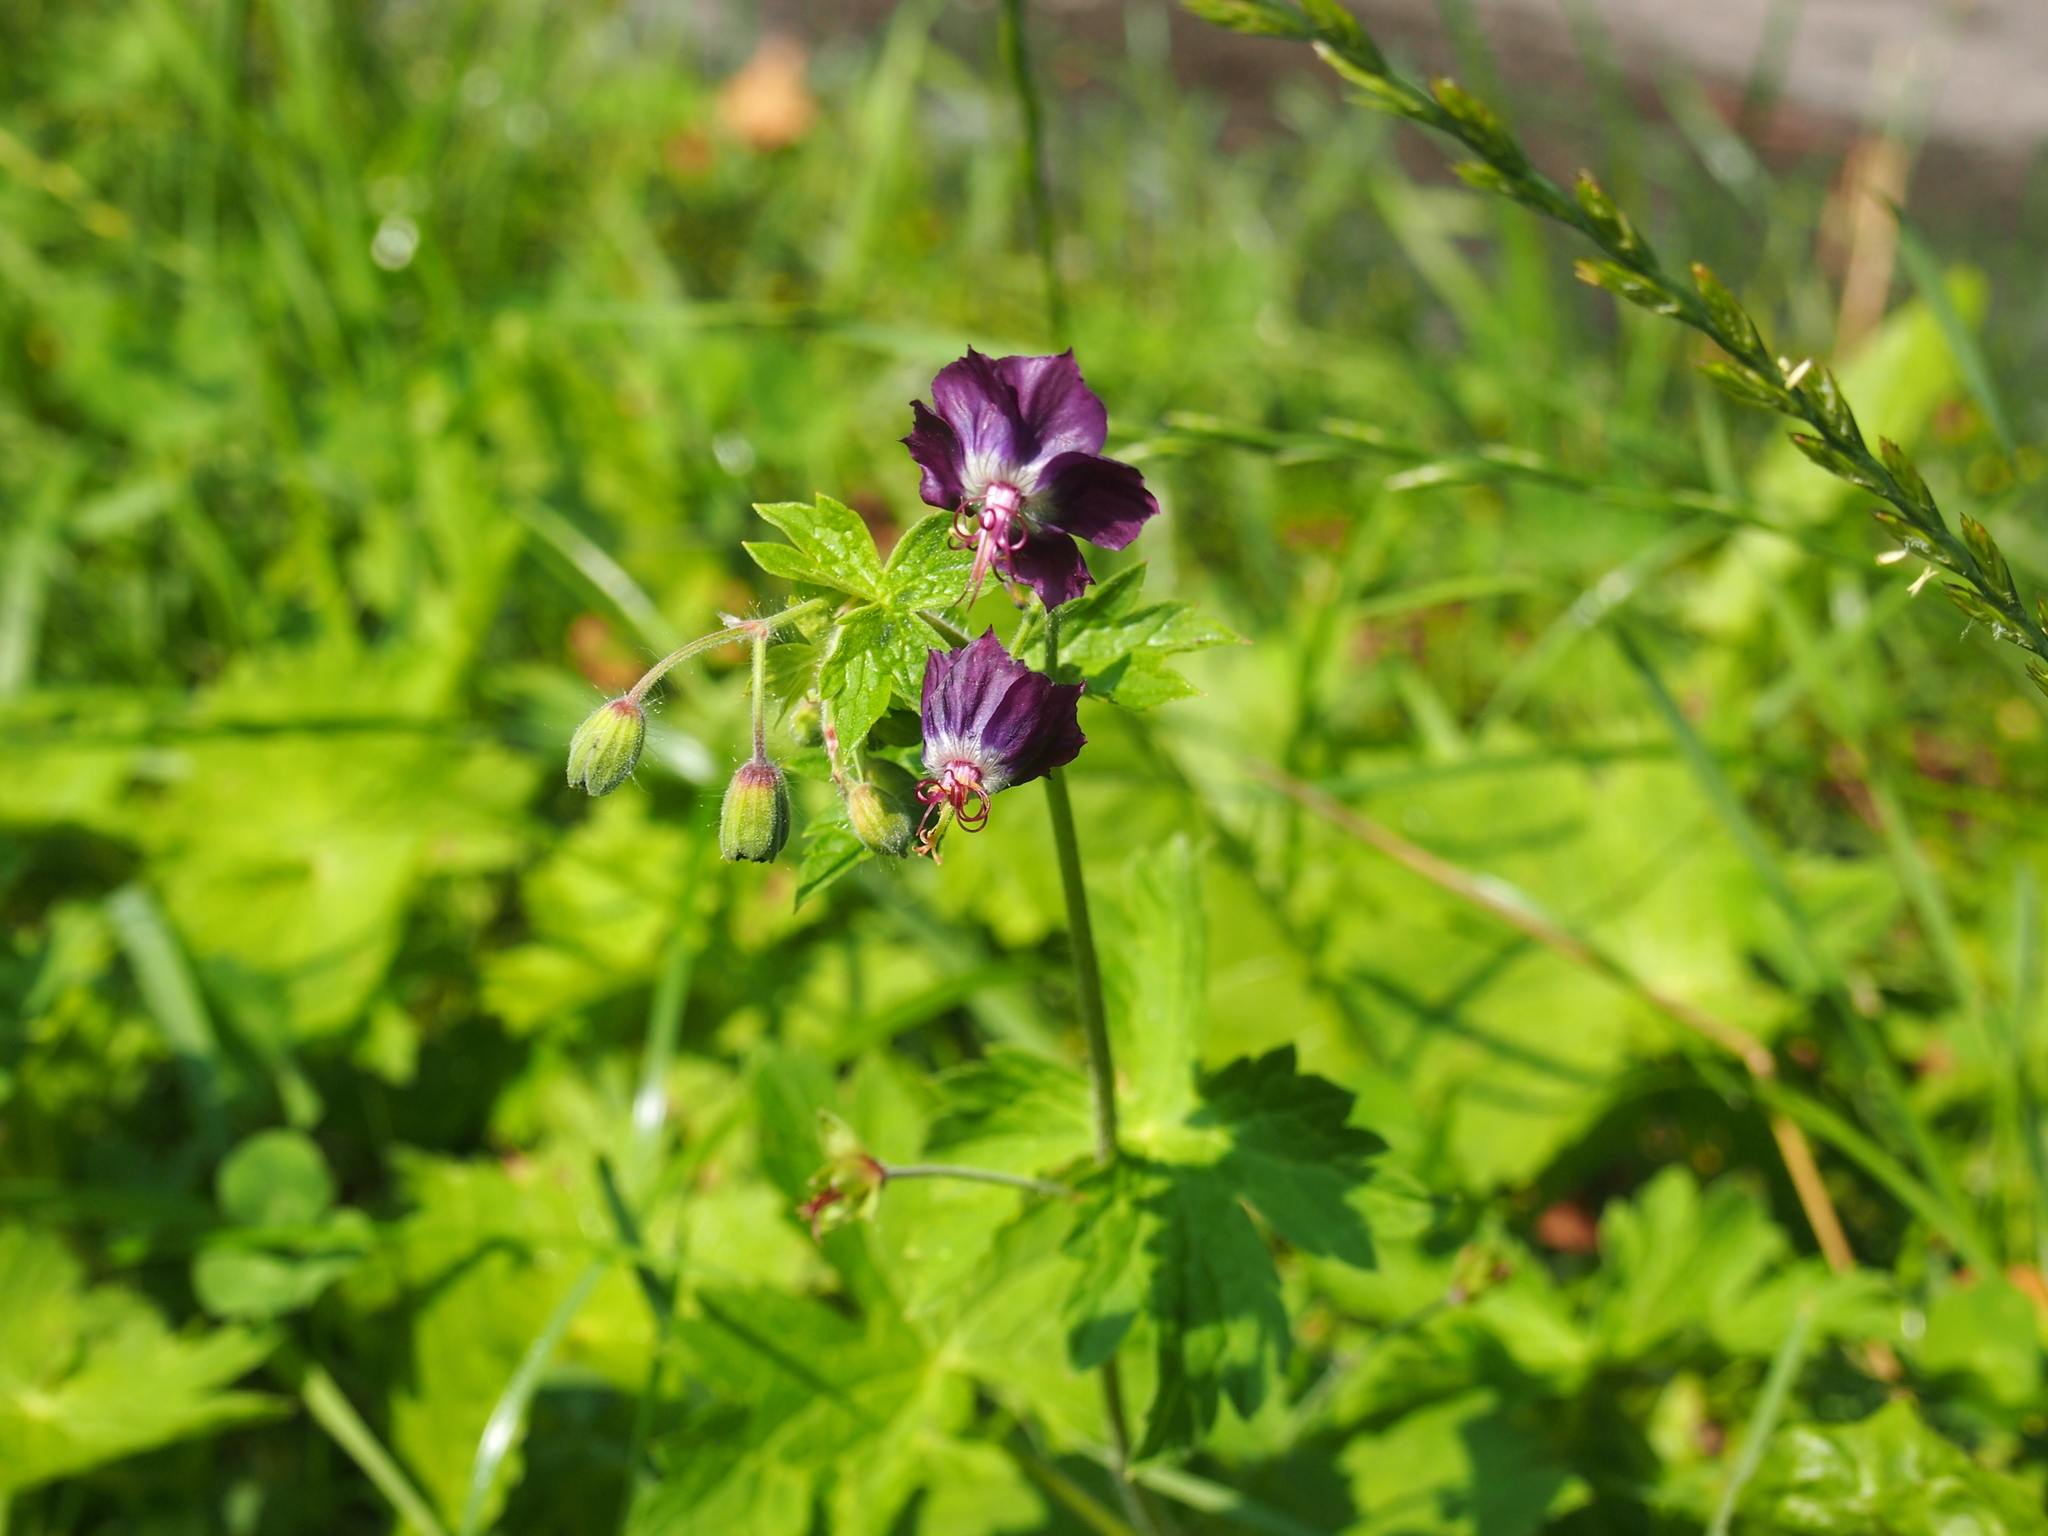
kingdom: Plantae
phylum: Tracheophyta
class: Magnoliopsida
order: Geraniales
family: Geraniaceae
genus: Geranium
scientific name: Geranium phaeum
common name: Dusky crane's-bill
